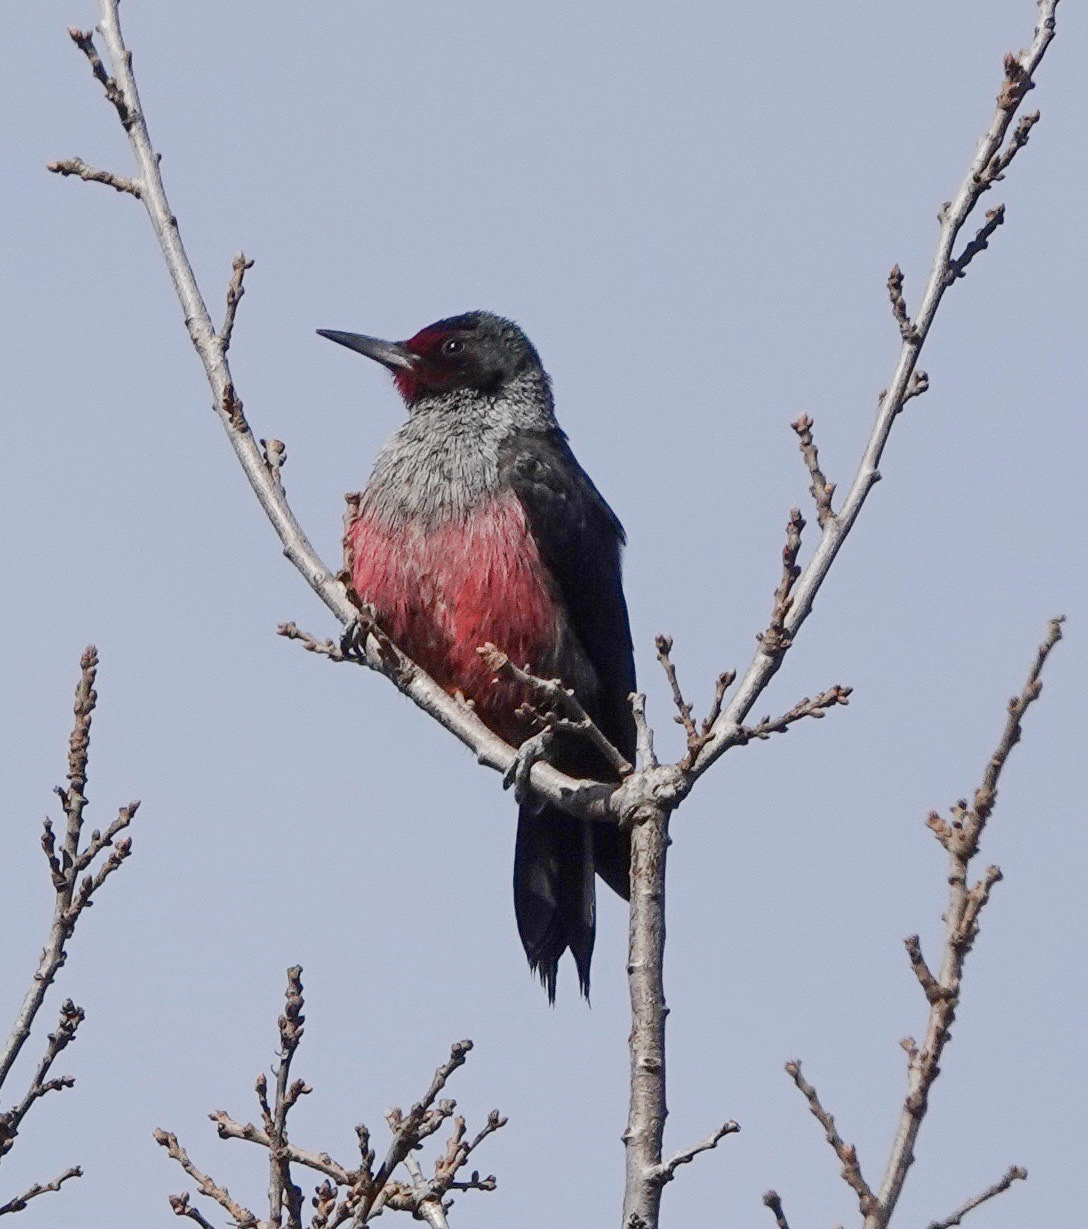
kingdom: Animalia
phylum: Chordata
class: Aves
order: Piciformes
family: Picidae
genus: Melanerpes
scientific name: Melanerpes lewis
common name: Lewis's woodpecker
